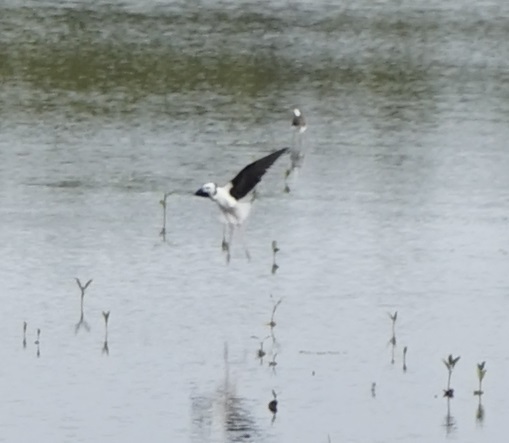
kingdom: Animalia
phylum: Chordata
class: Aves
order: Charadriiformes
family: Recurvirostridae
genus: Himantopus
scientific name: Himantopus leucocephalus
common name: White-headed stilt
